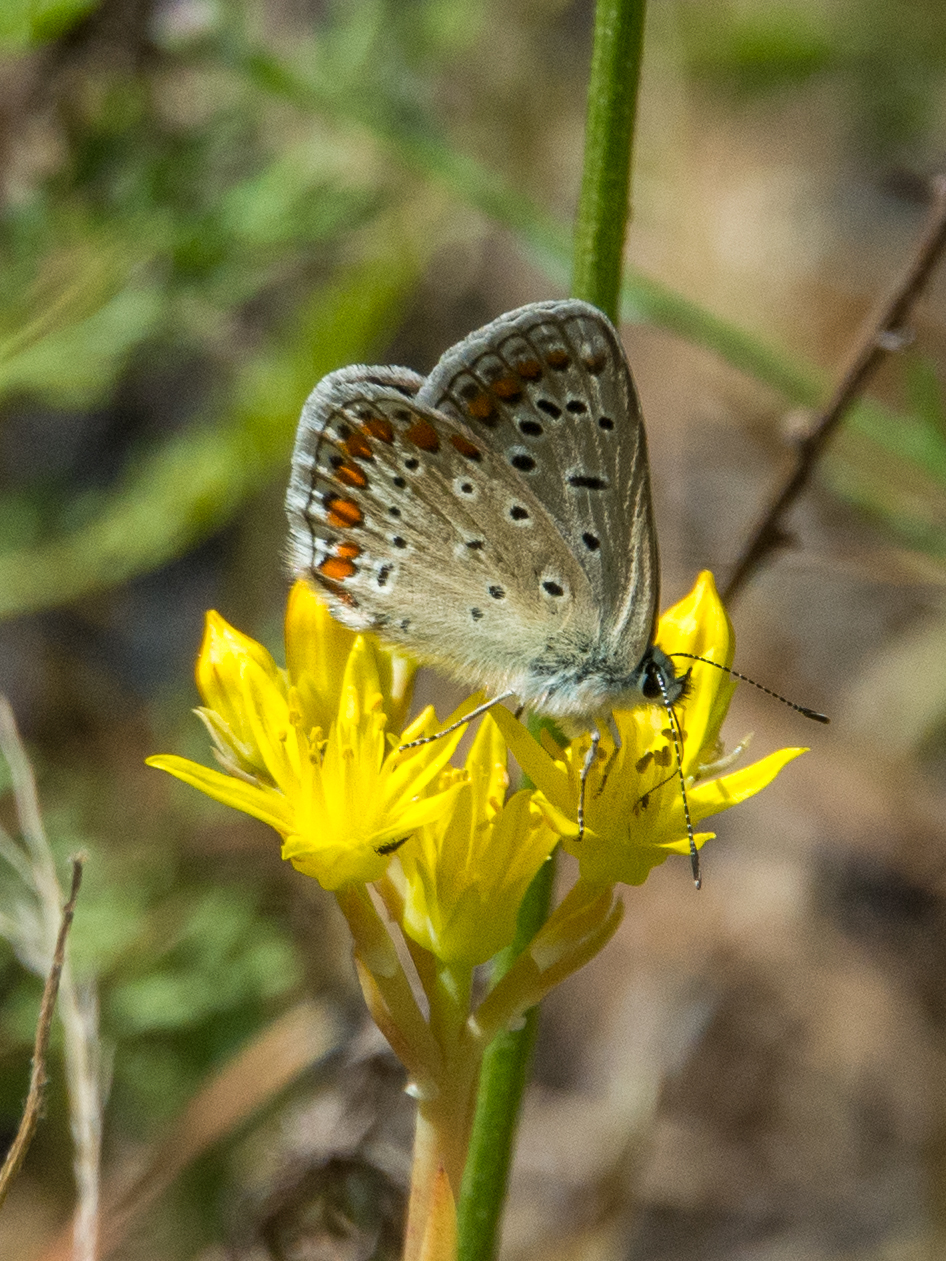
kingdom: Animalia
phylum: Arthropoda
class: Insecta
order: Lepidoptera
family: Lycaenidae
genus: Polyommatus
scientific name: Polyommatus celina
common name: Austaut's blue
